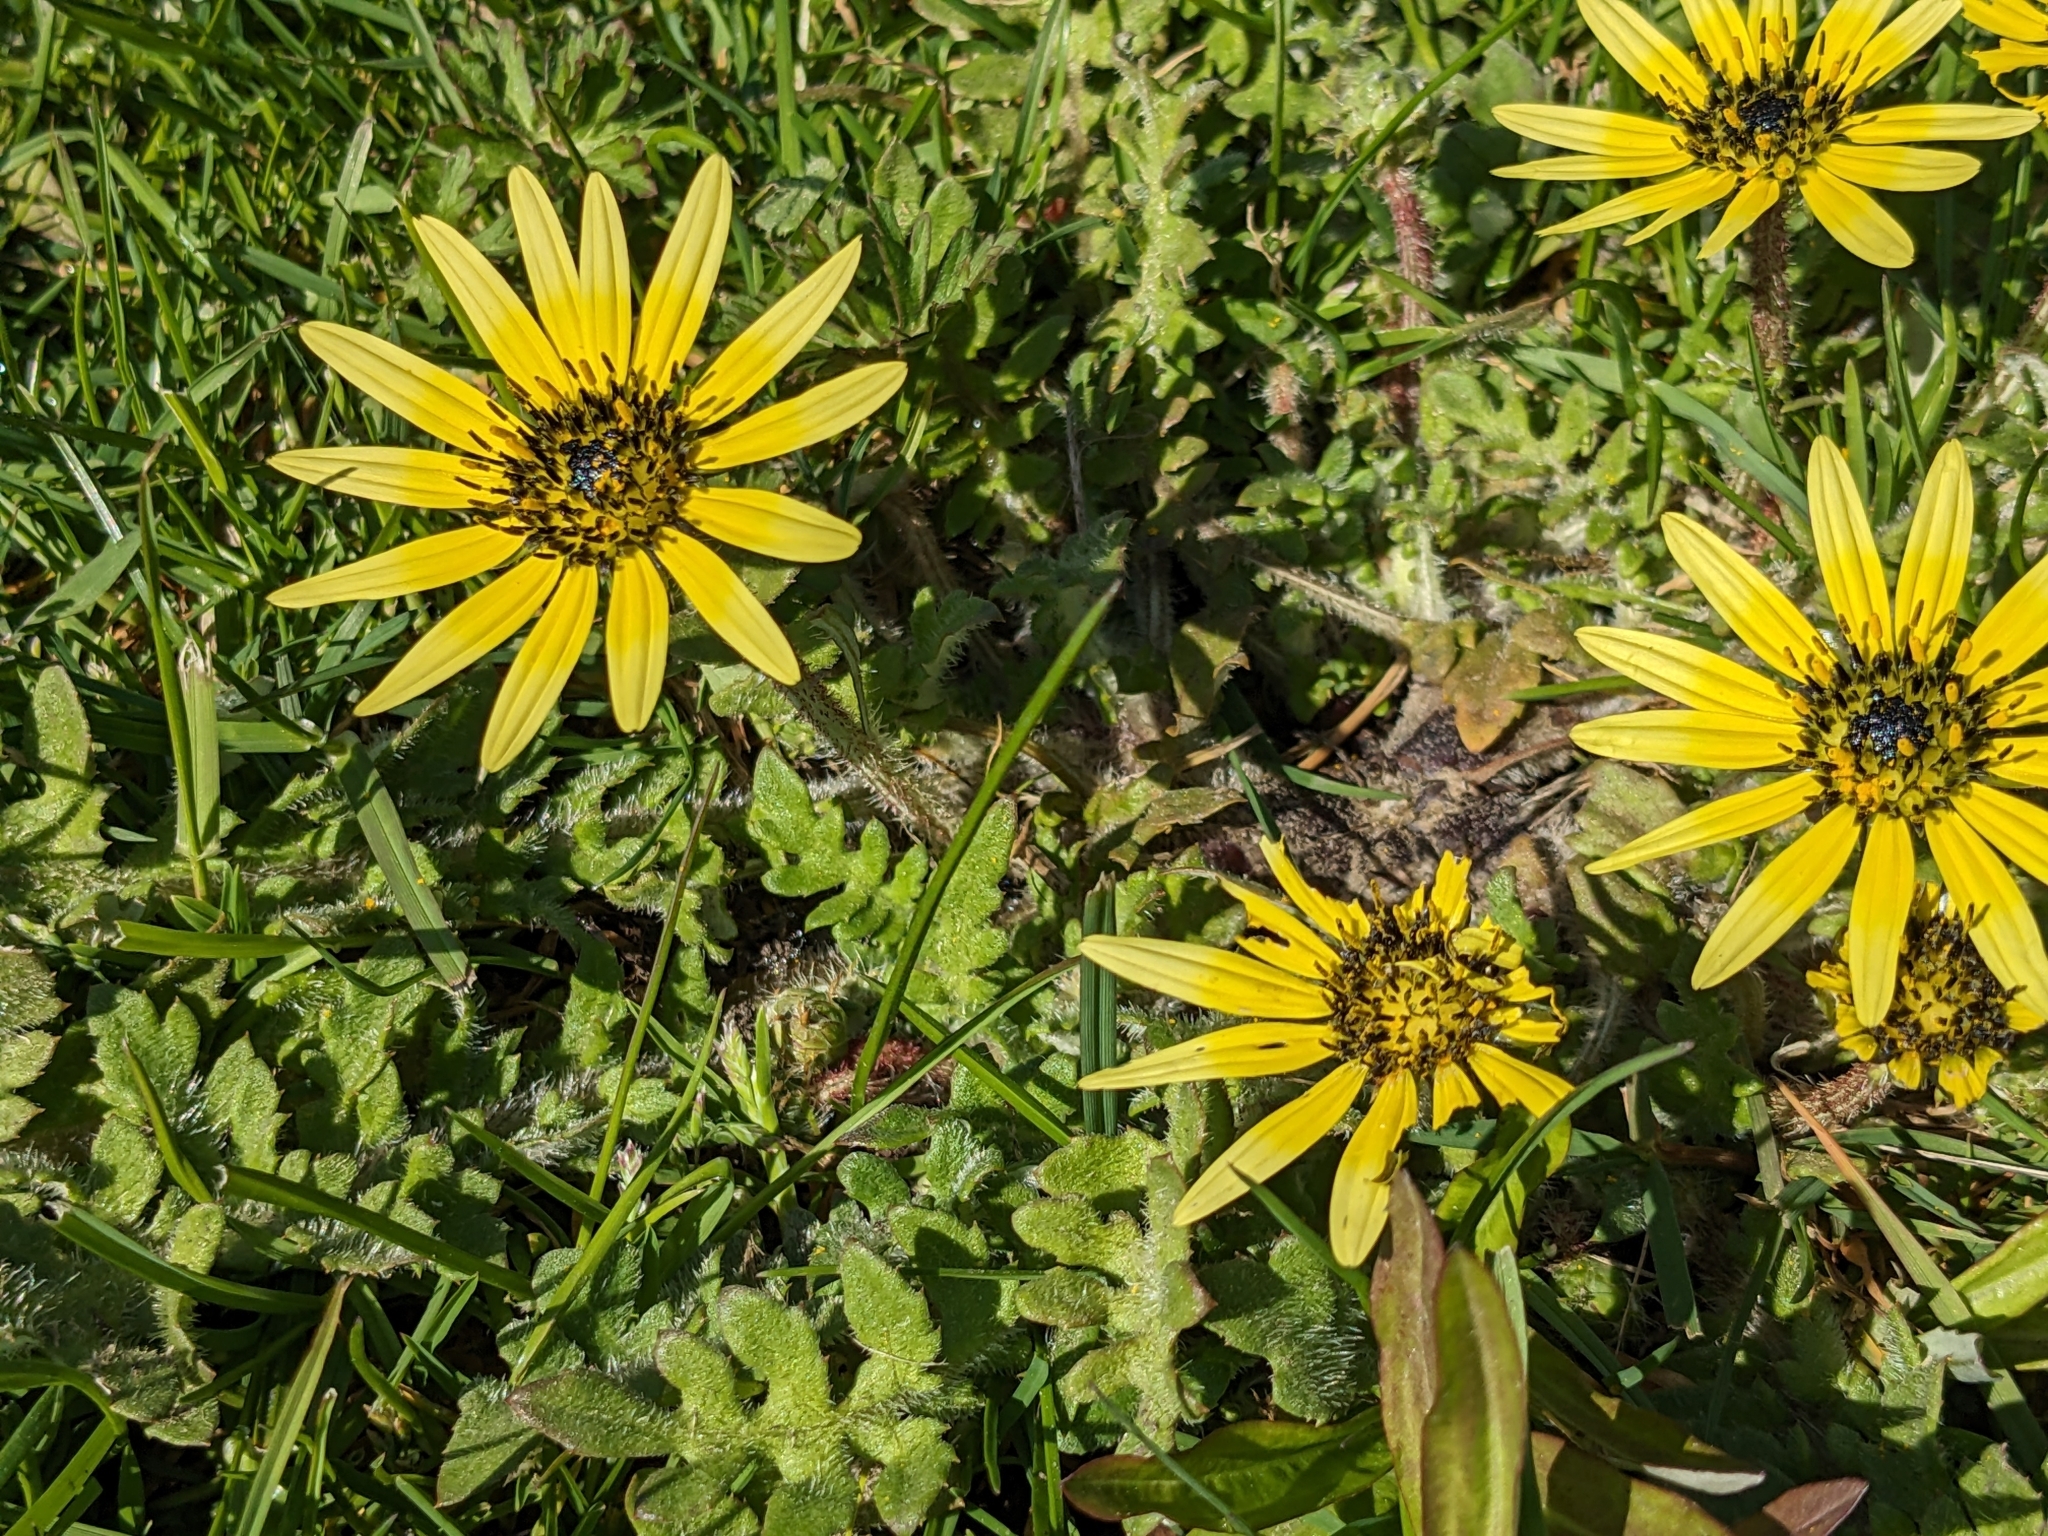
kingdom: Plantae
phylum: Tracheophyta
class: Magnoliopsida
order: Asterales
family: Asteraceae
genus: Arctotheca
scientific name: Arctotheca calendula
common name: Capeweed
